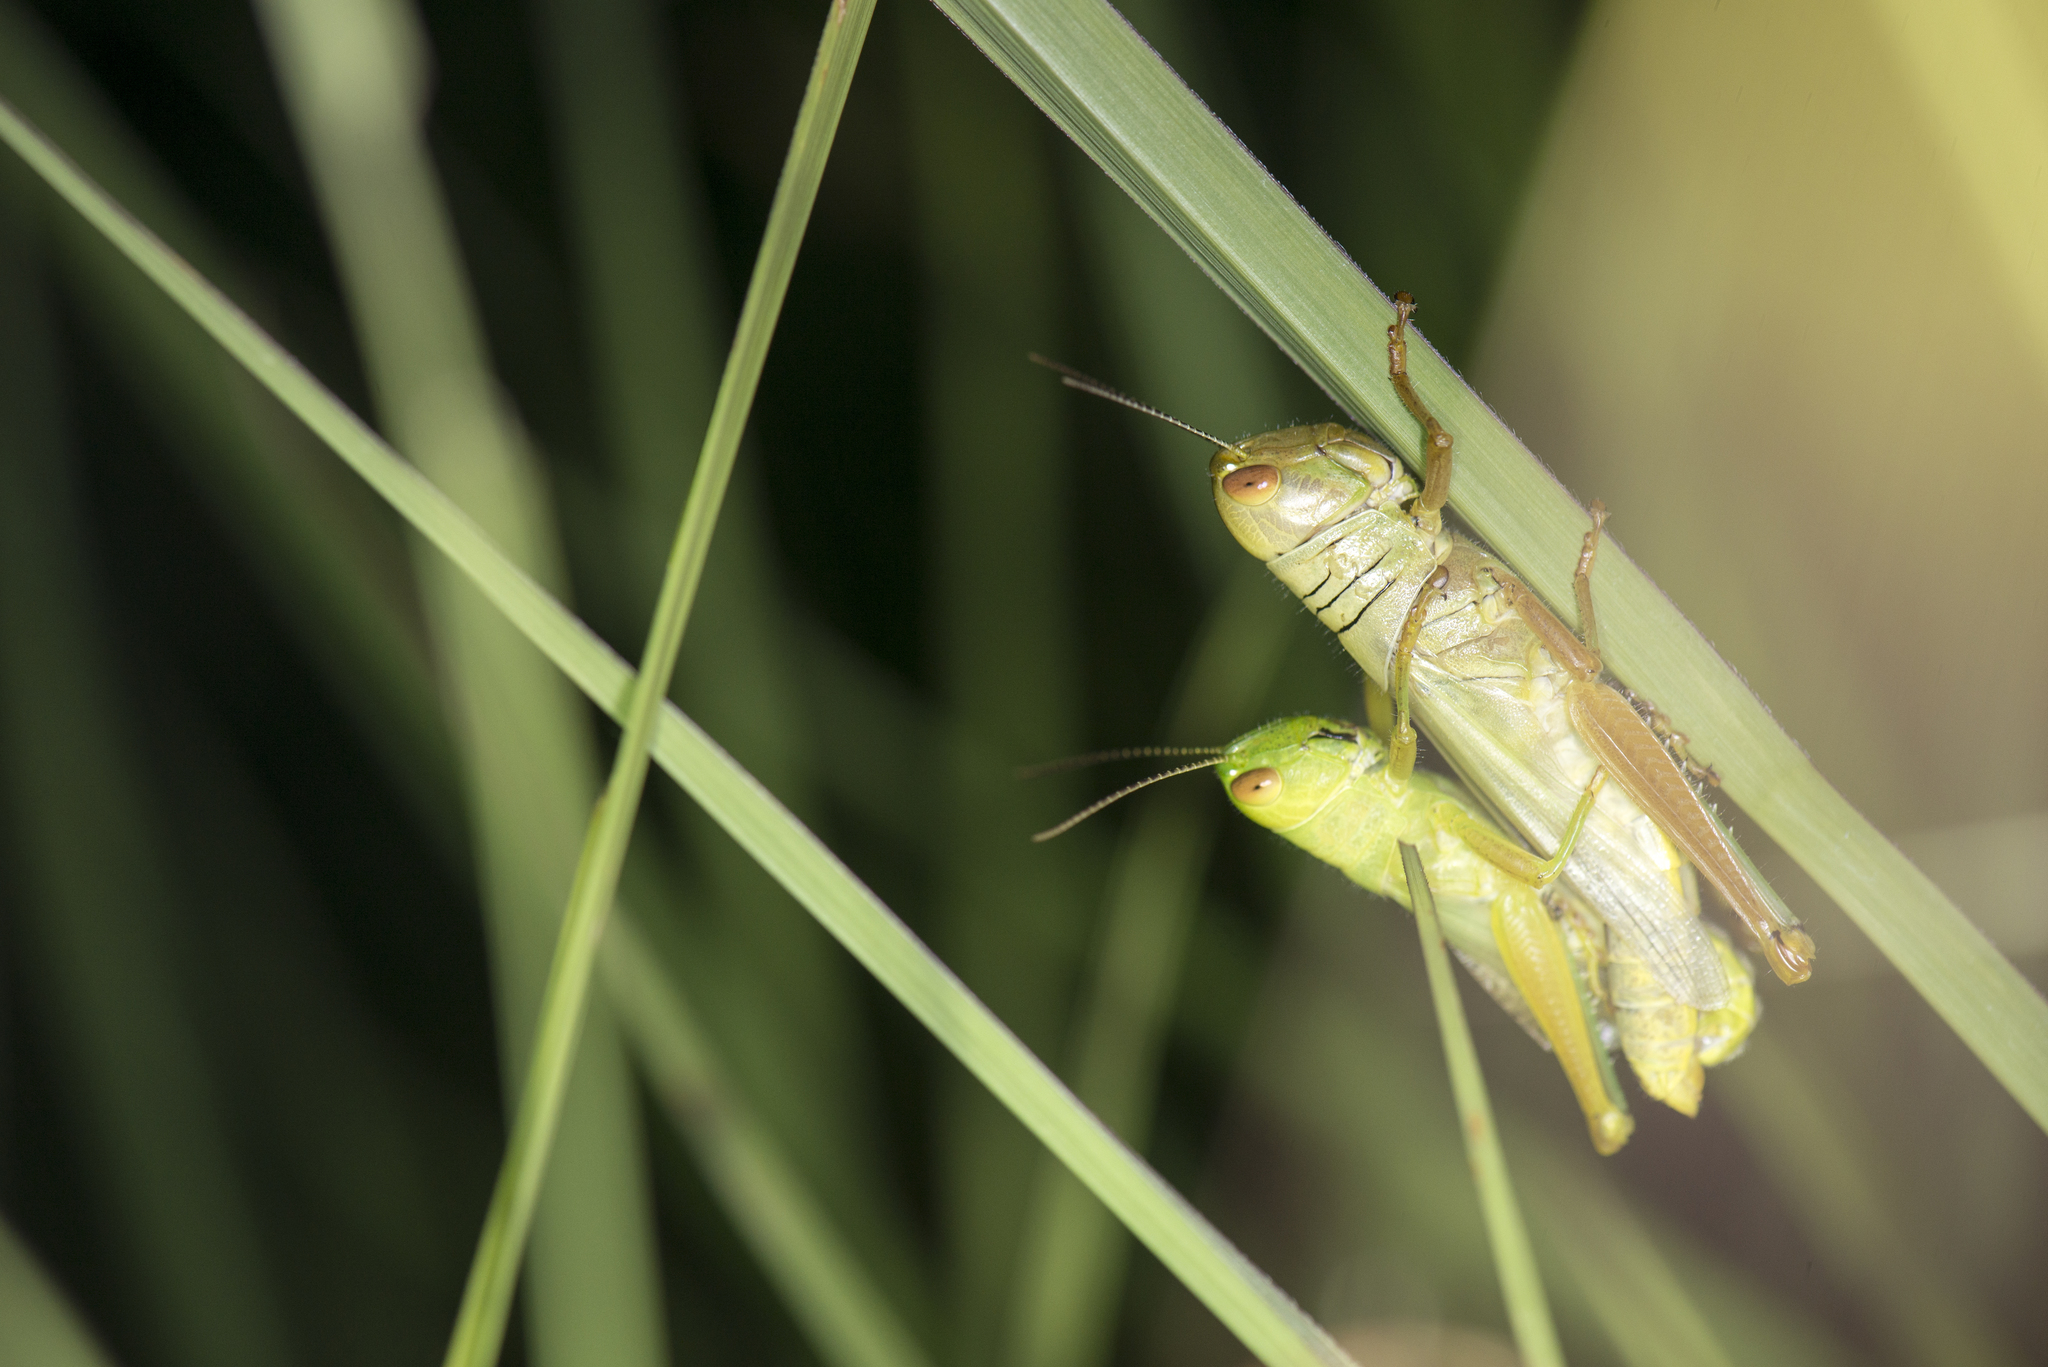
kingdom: Animalia
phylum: Arthropoda
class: Insecta
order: Orthoptera
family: Acrididae
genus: Hieroglyphus
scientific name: Hieroglyphus annulicornis
